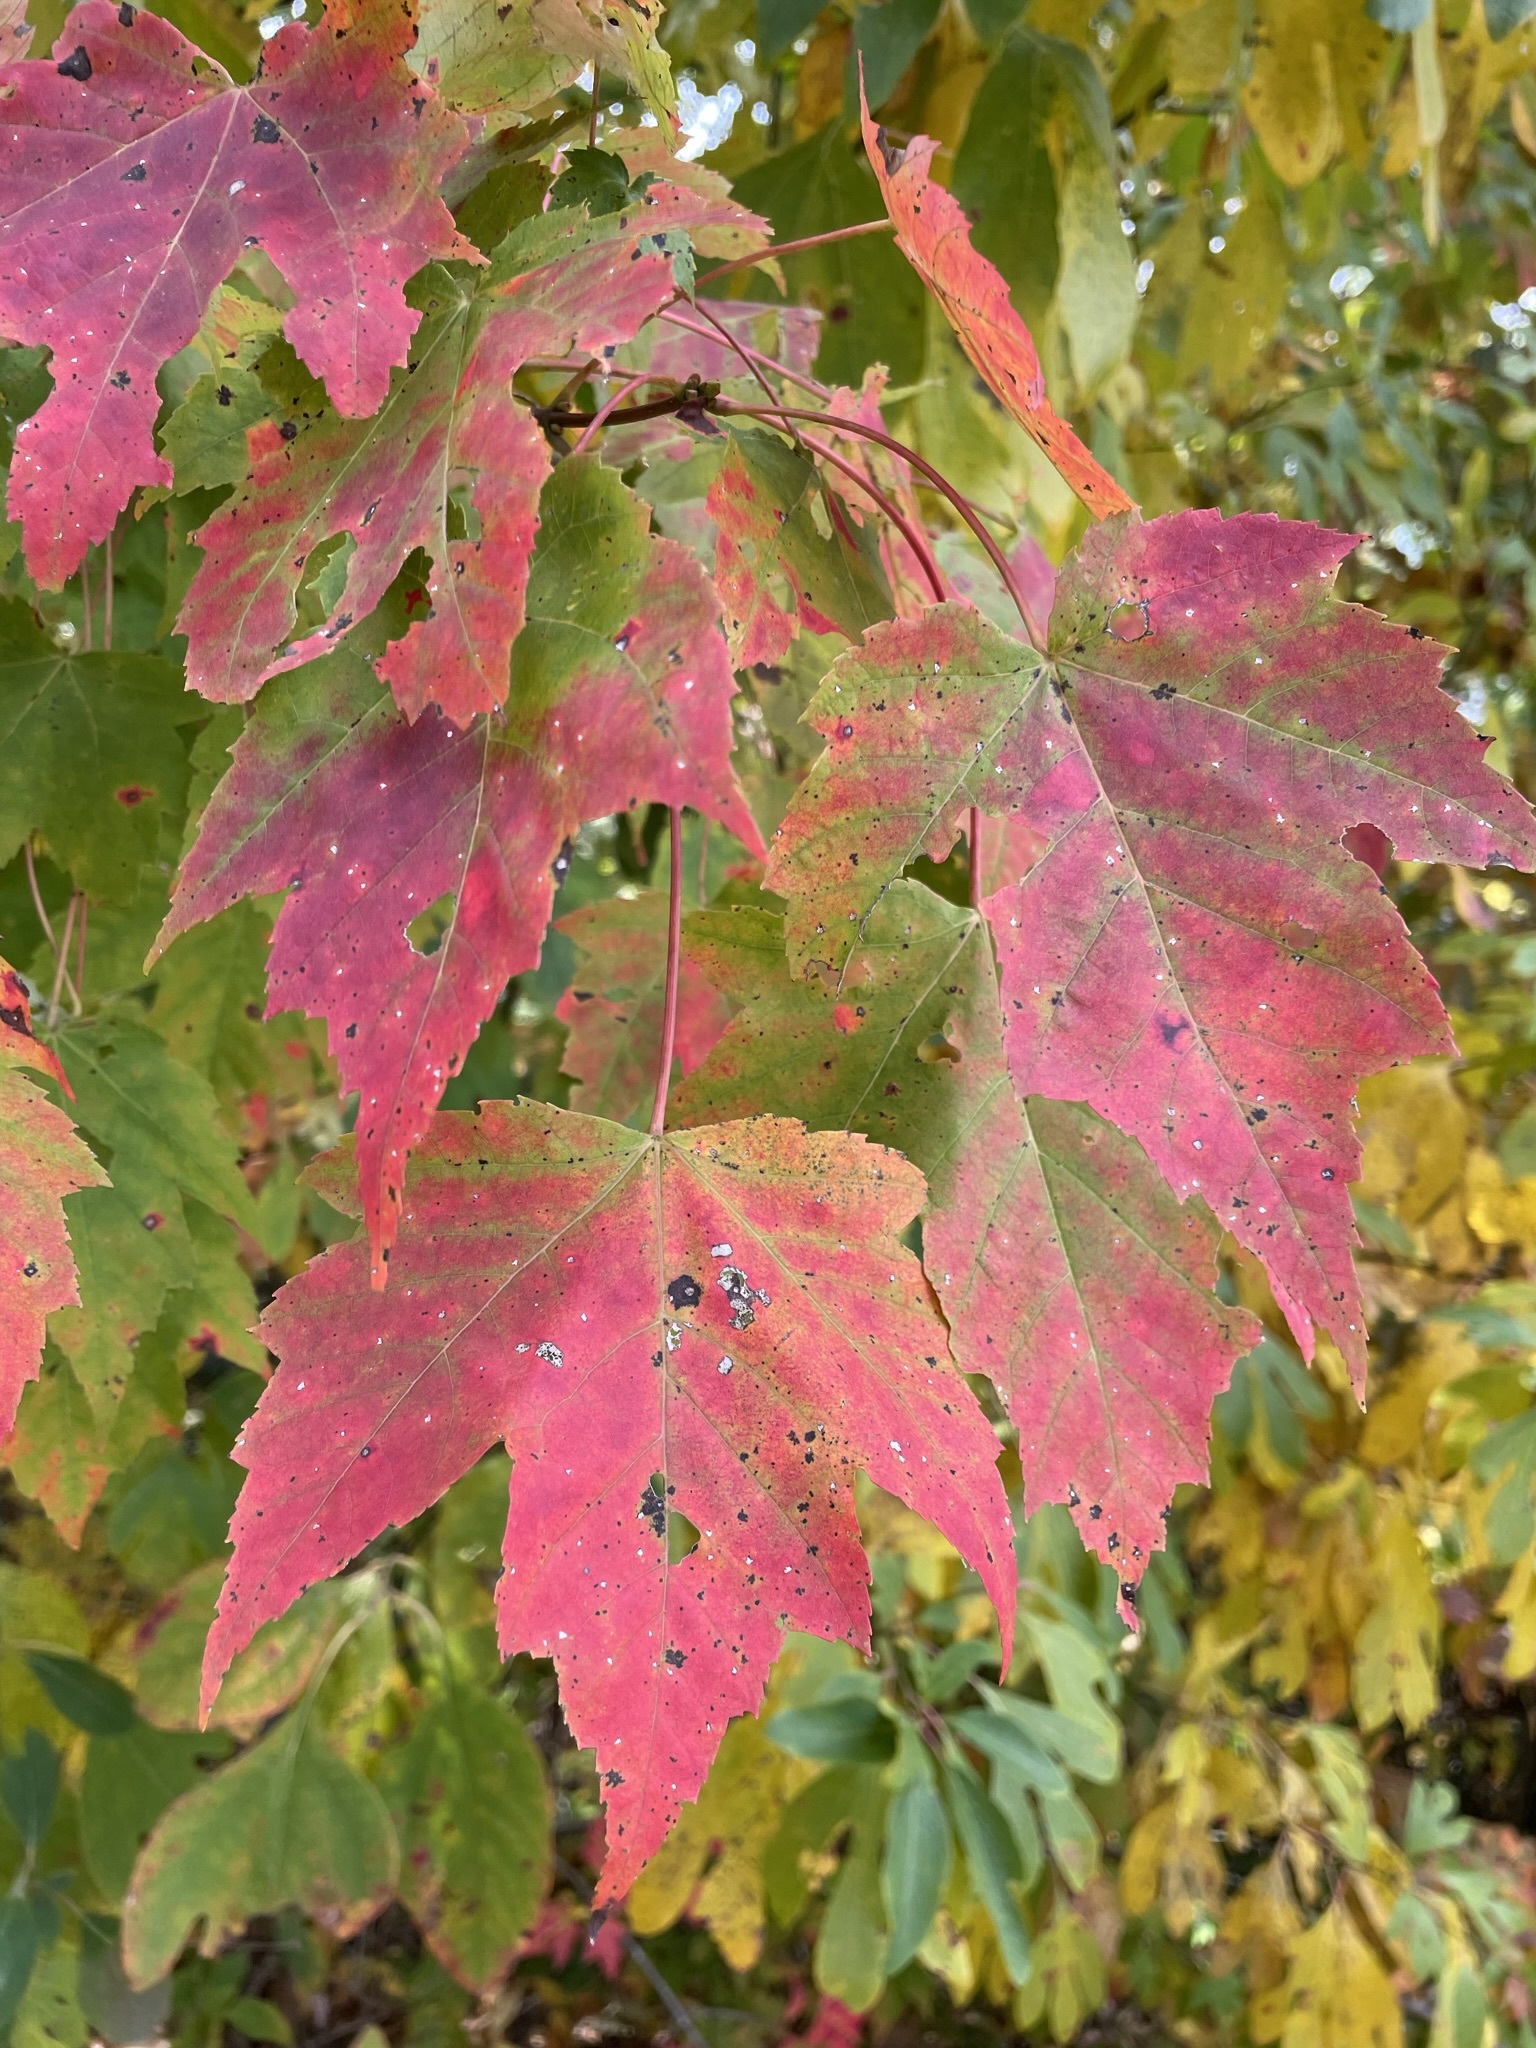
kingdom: Plantae
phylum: Tracheophyta
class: Magnoliopsida
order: Sapindales
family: Sapindaceae
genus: Acer
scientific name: Acer rubrum
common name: Red maple
